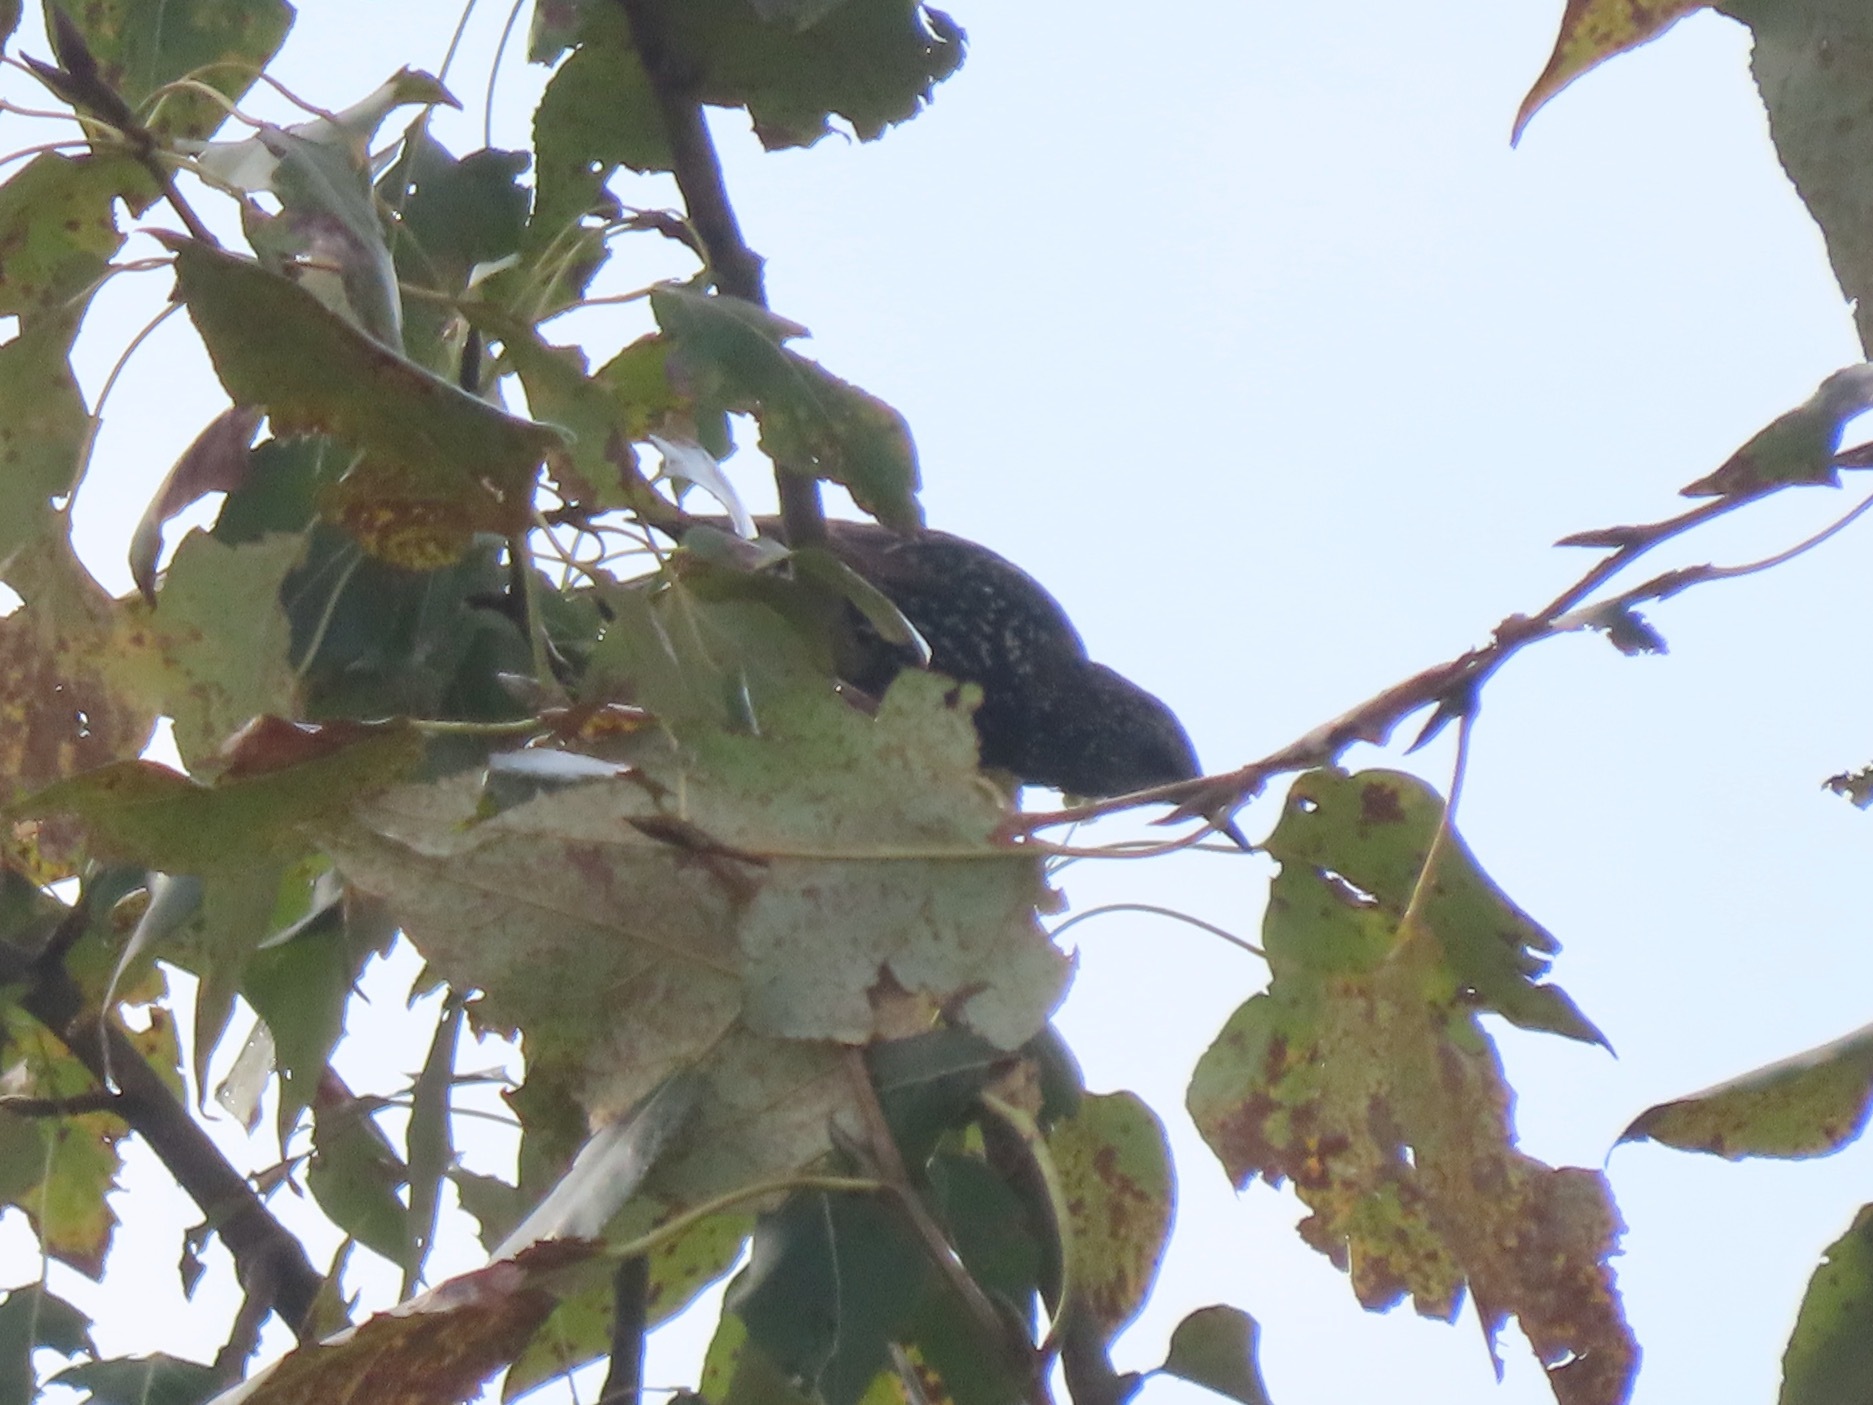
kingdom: Animalia
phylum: Chordata
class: Aves
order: Passeriformes
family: Sturnidae
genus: Sturnus
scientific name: Sturnus vulgaris
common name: Common starling
